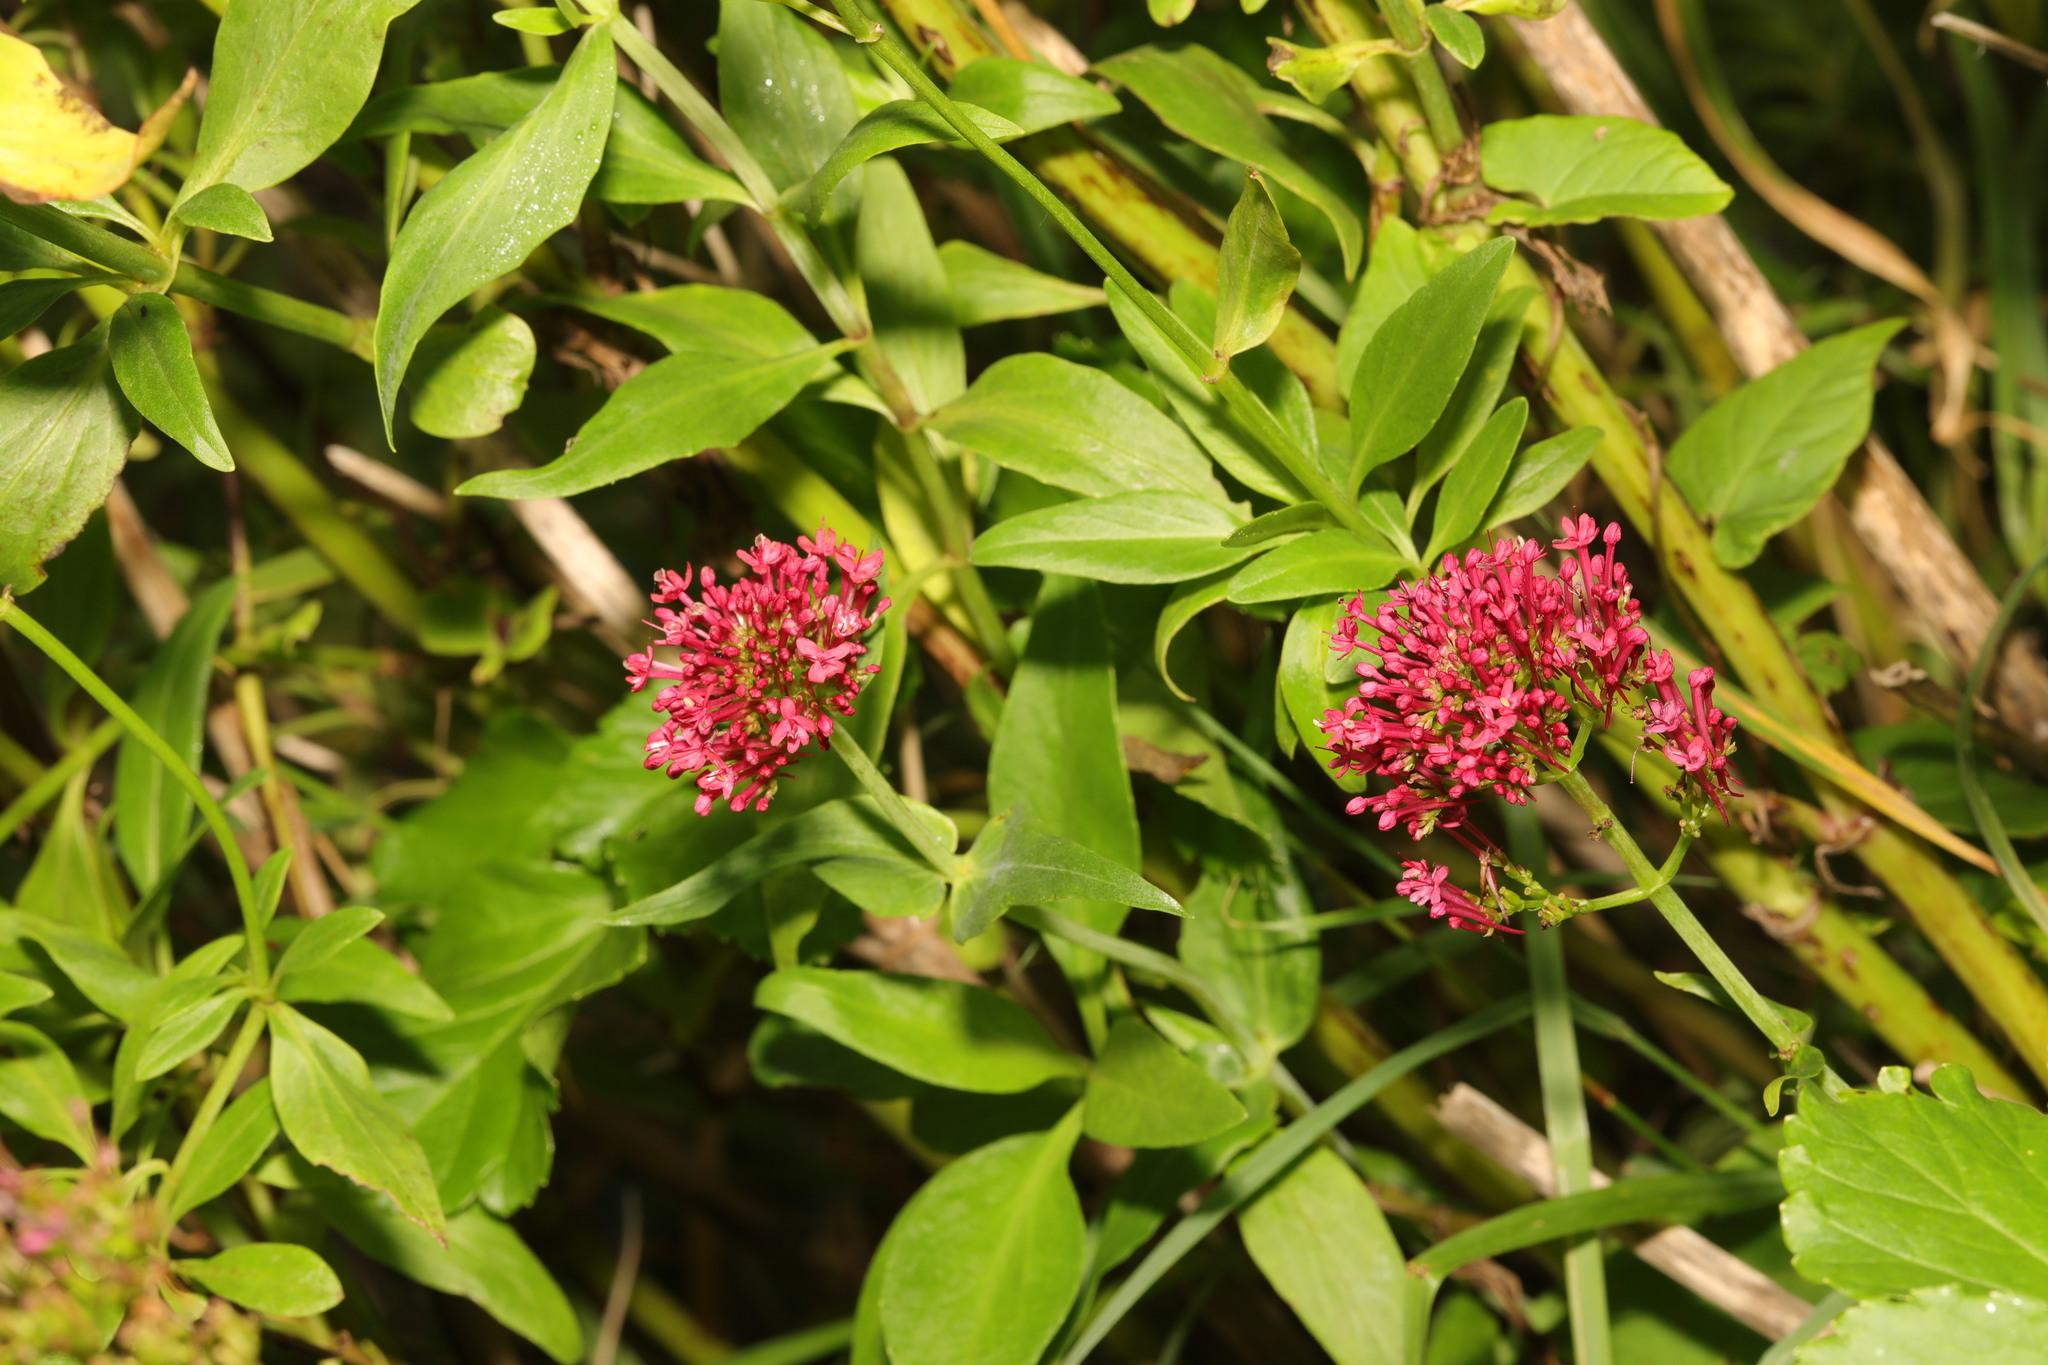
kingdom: Plantae
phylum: Tracheophyta
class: Magnoliopsida
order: Dipsacales
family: Caprifoliaceae
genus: Centranthus
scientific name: Centranthus ruber
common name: Red valerian
